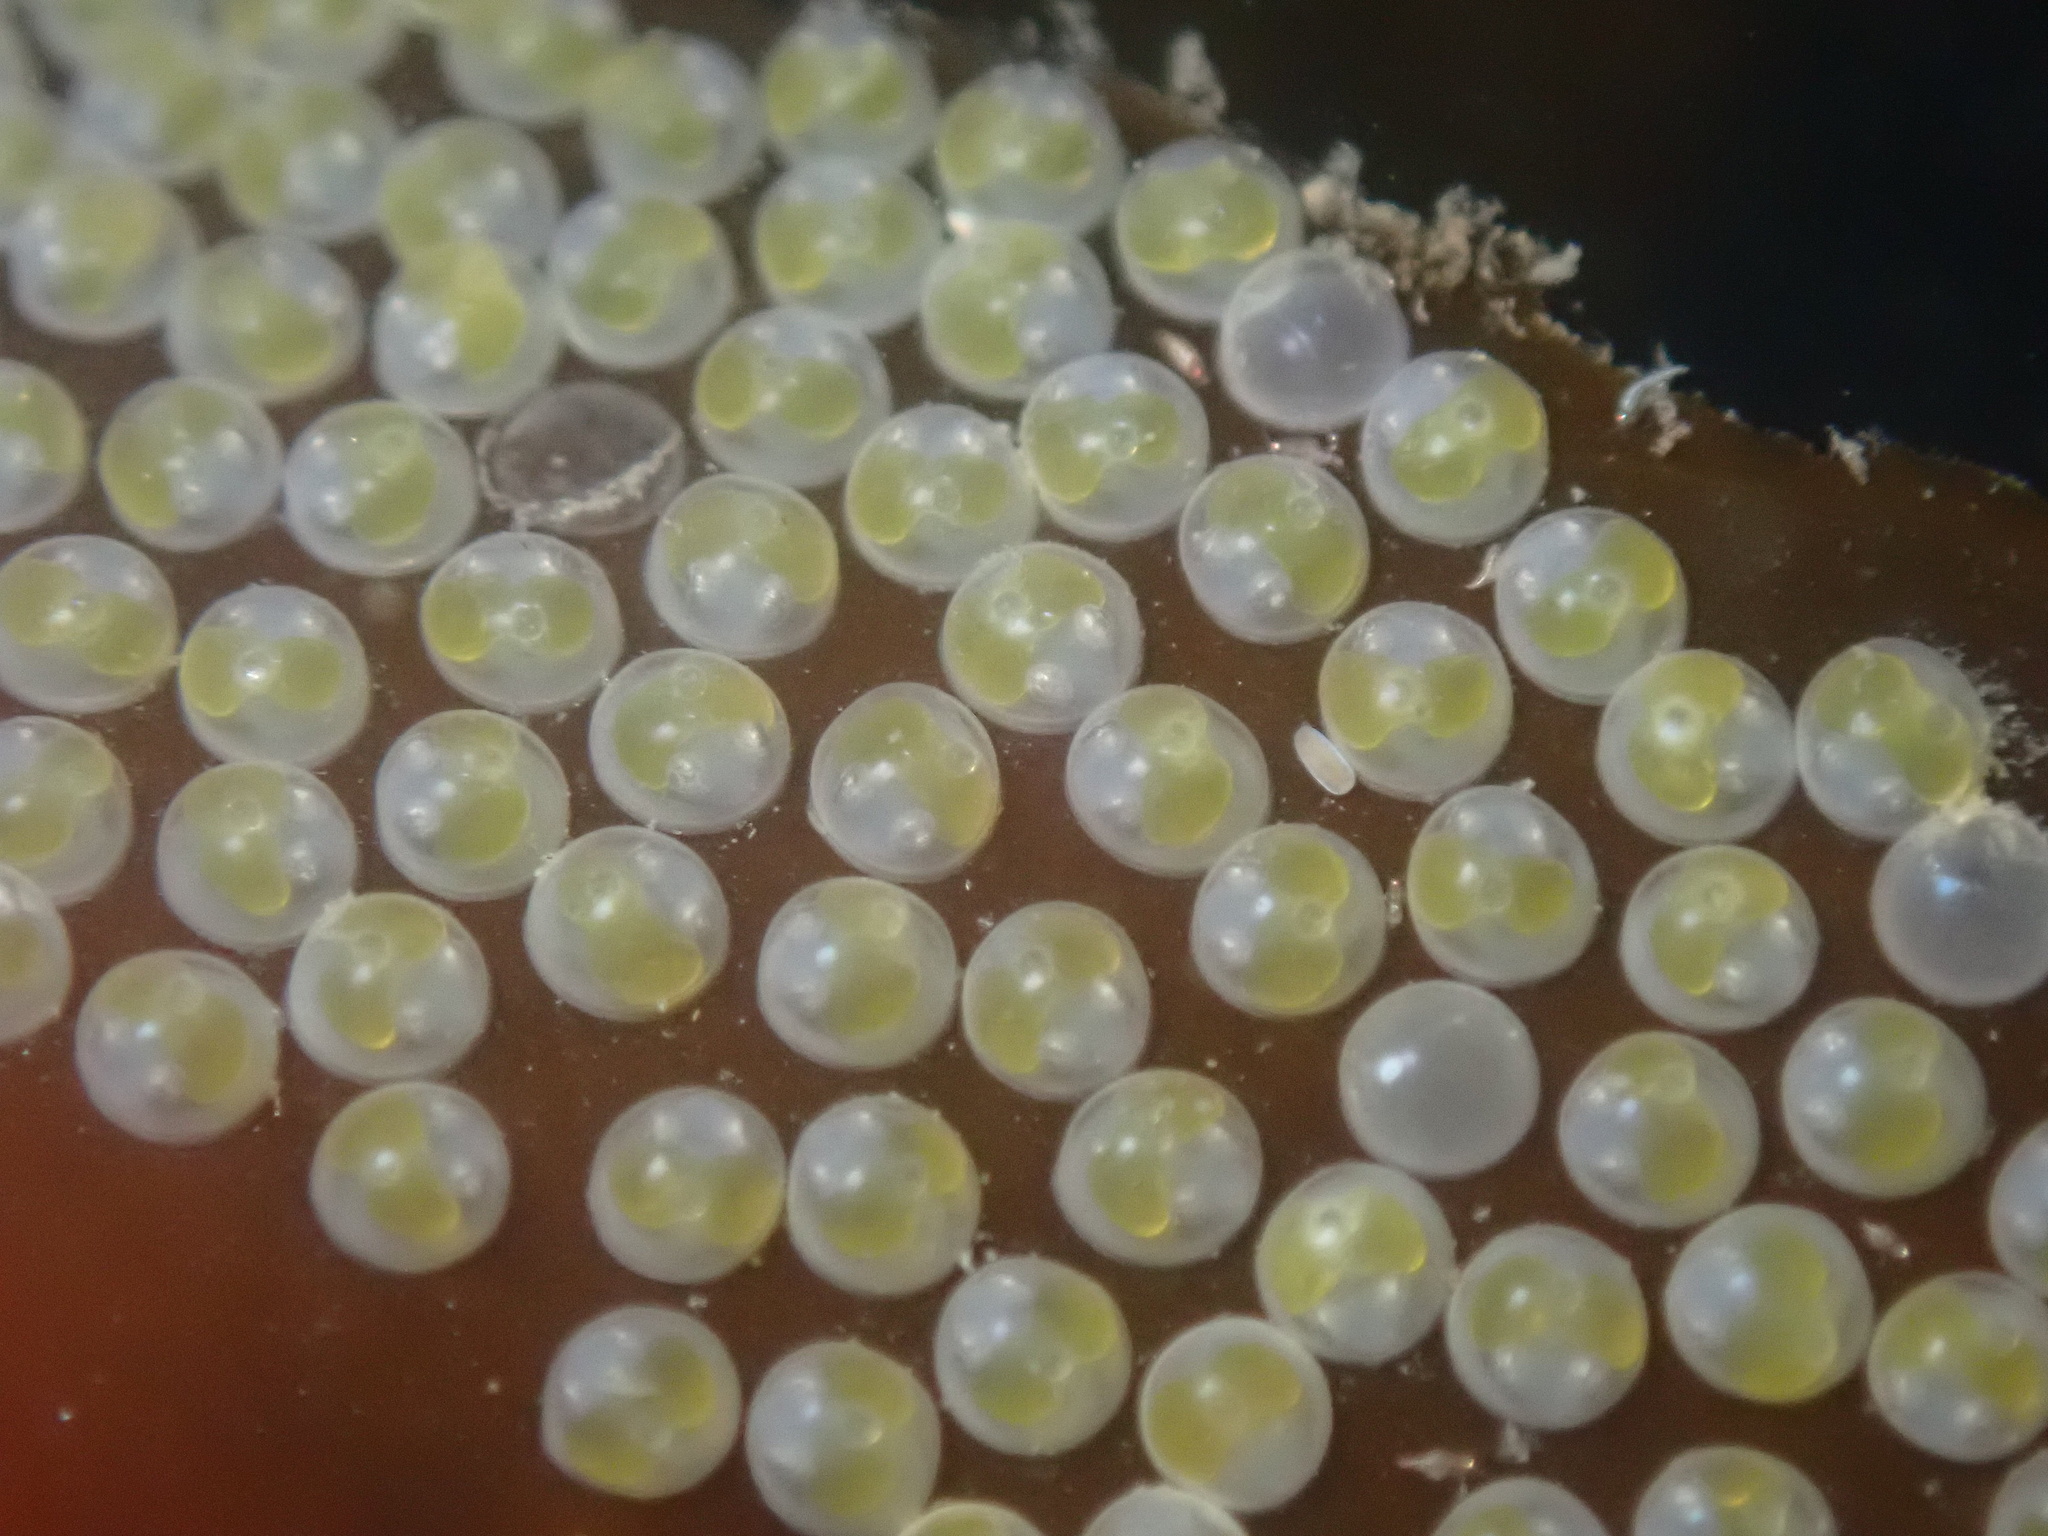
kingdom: Animalia
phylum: Chordata
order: Gobiesociformes
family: Gobiesocidae
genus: Rimicola
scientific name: Rimicola muscarum
